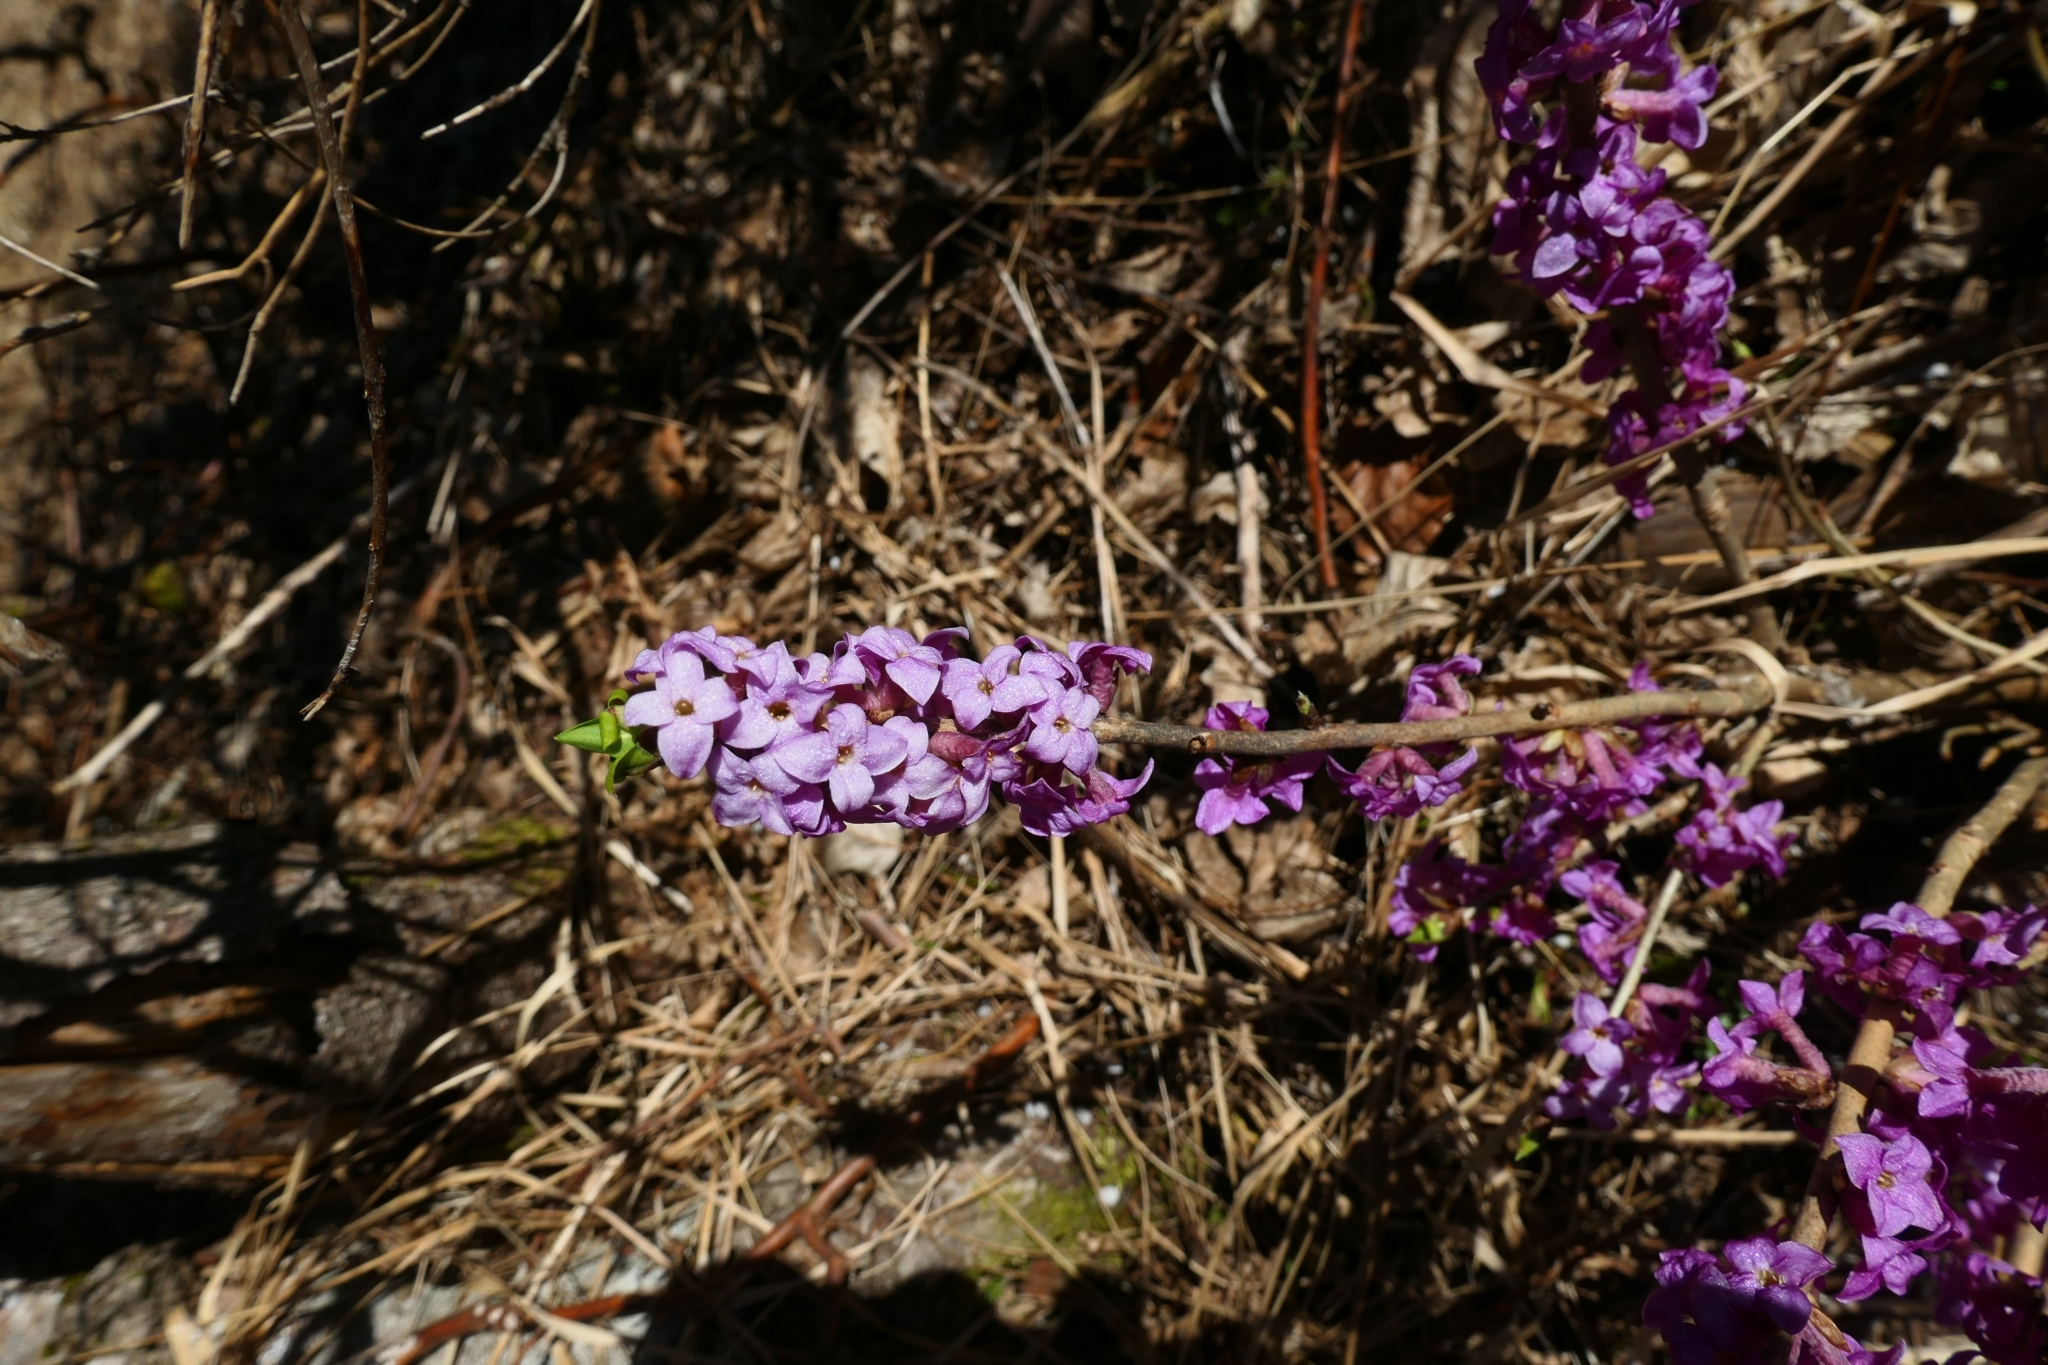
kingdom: Plantae
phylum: Tracheophyta
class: Magnoliopsida
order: Malvales
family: Thymelaeaceae
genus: Daphne
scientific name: Daphne mezereum
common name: Mezereon
